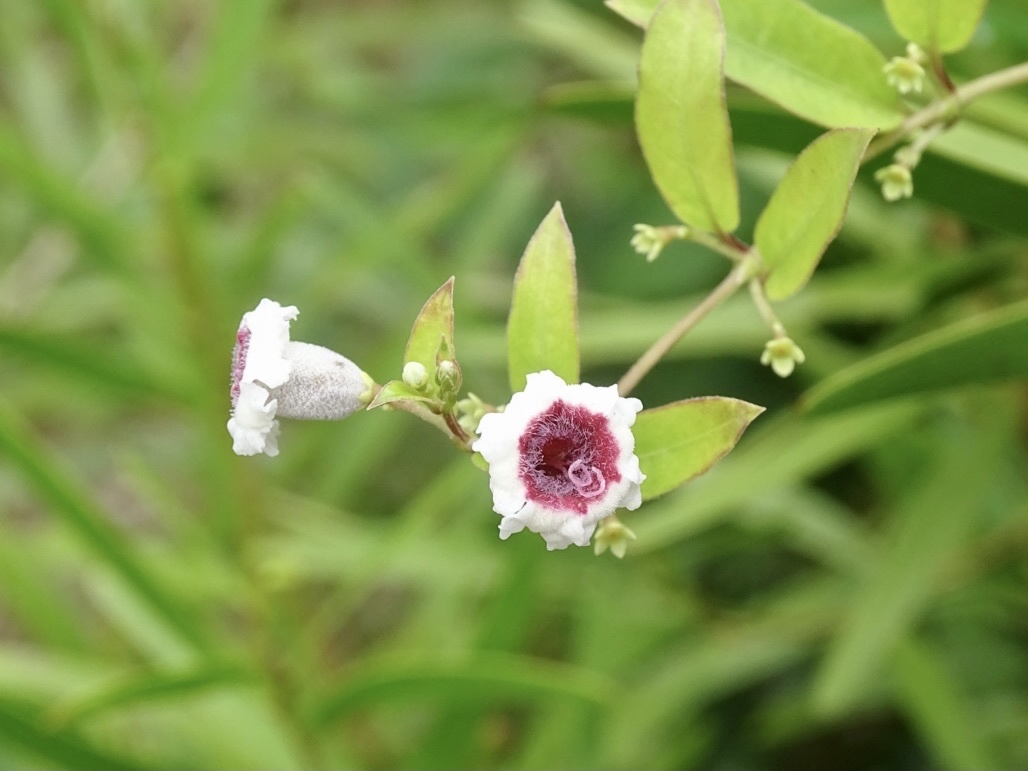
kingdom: Plantae
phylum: Tracheophyta
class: Magnoliopsida
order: Gentianales
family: Rubiaceae
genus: Paederia
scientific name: Paederia foetida
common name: Stinkvine
